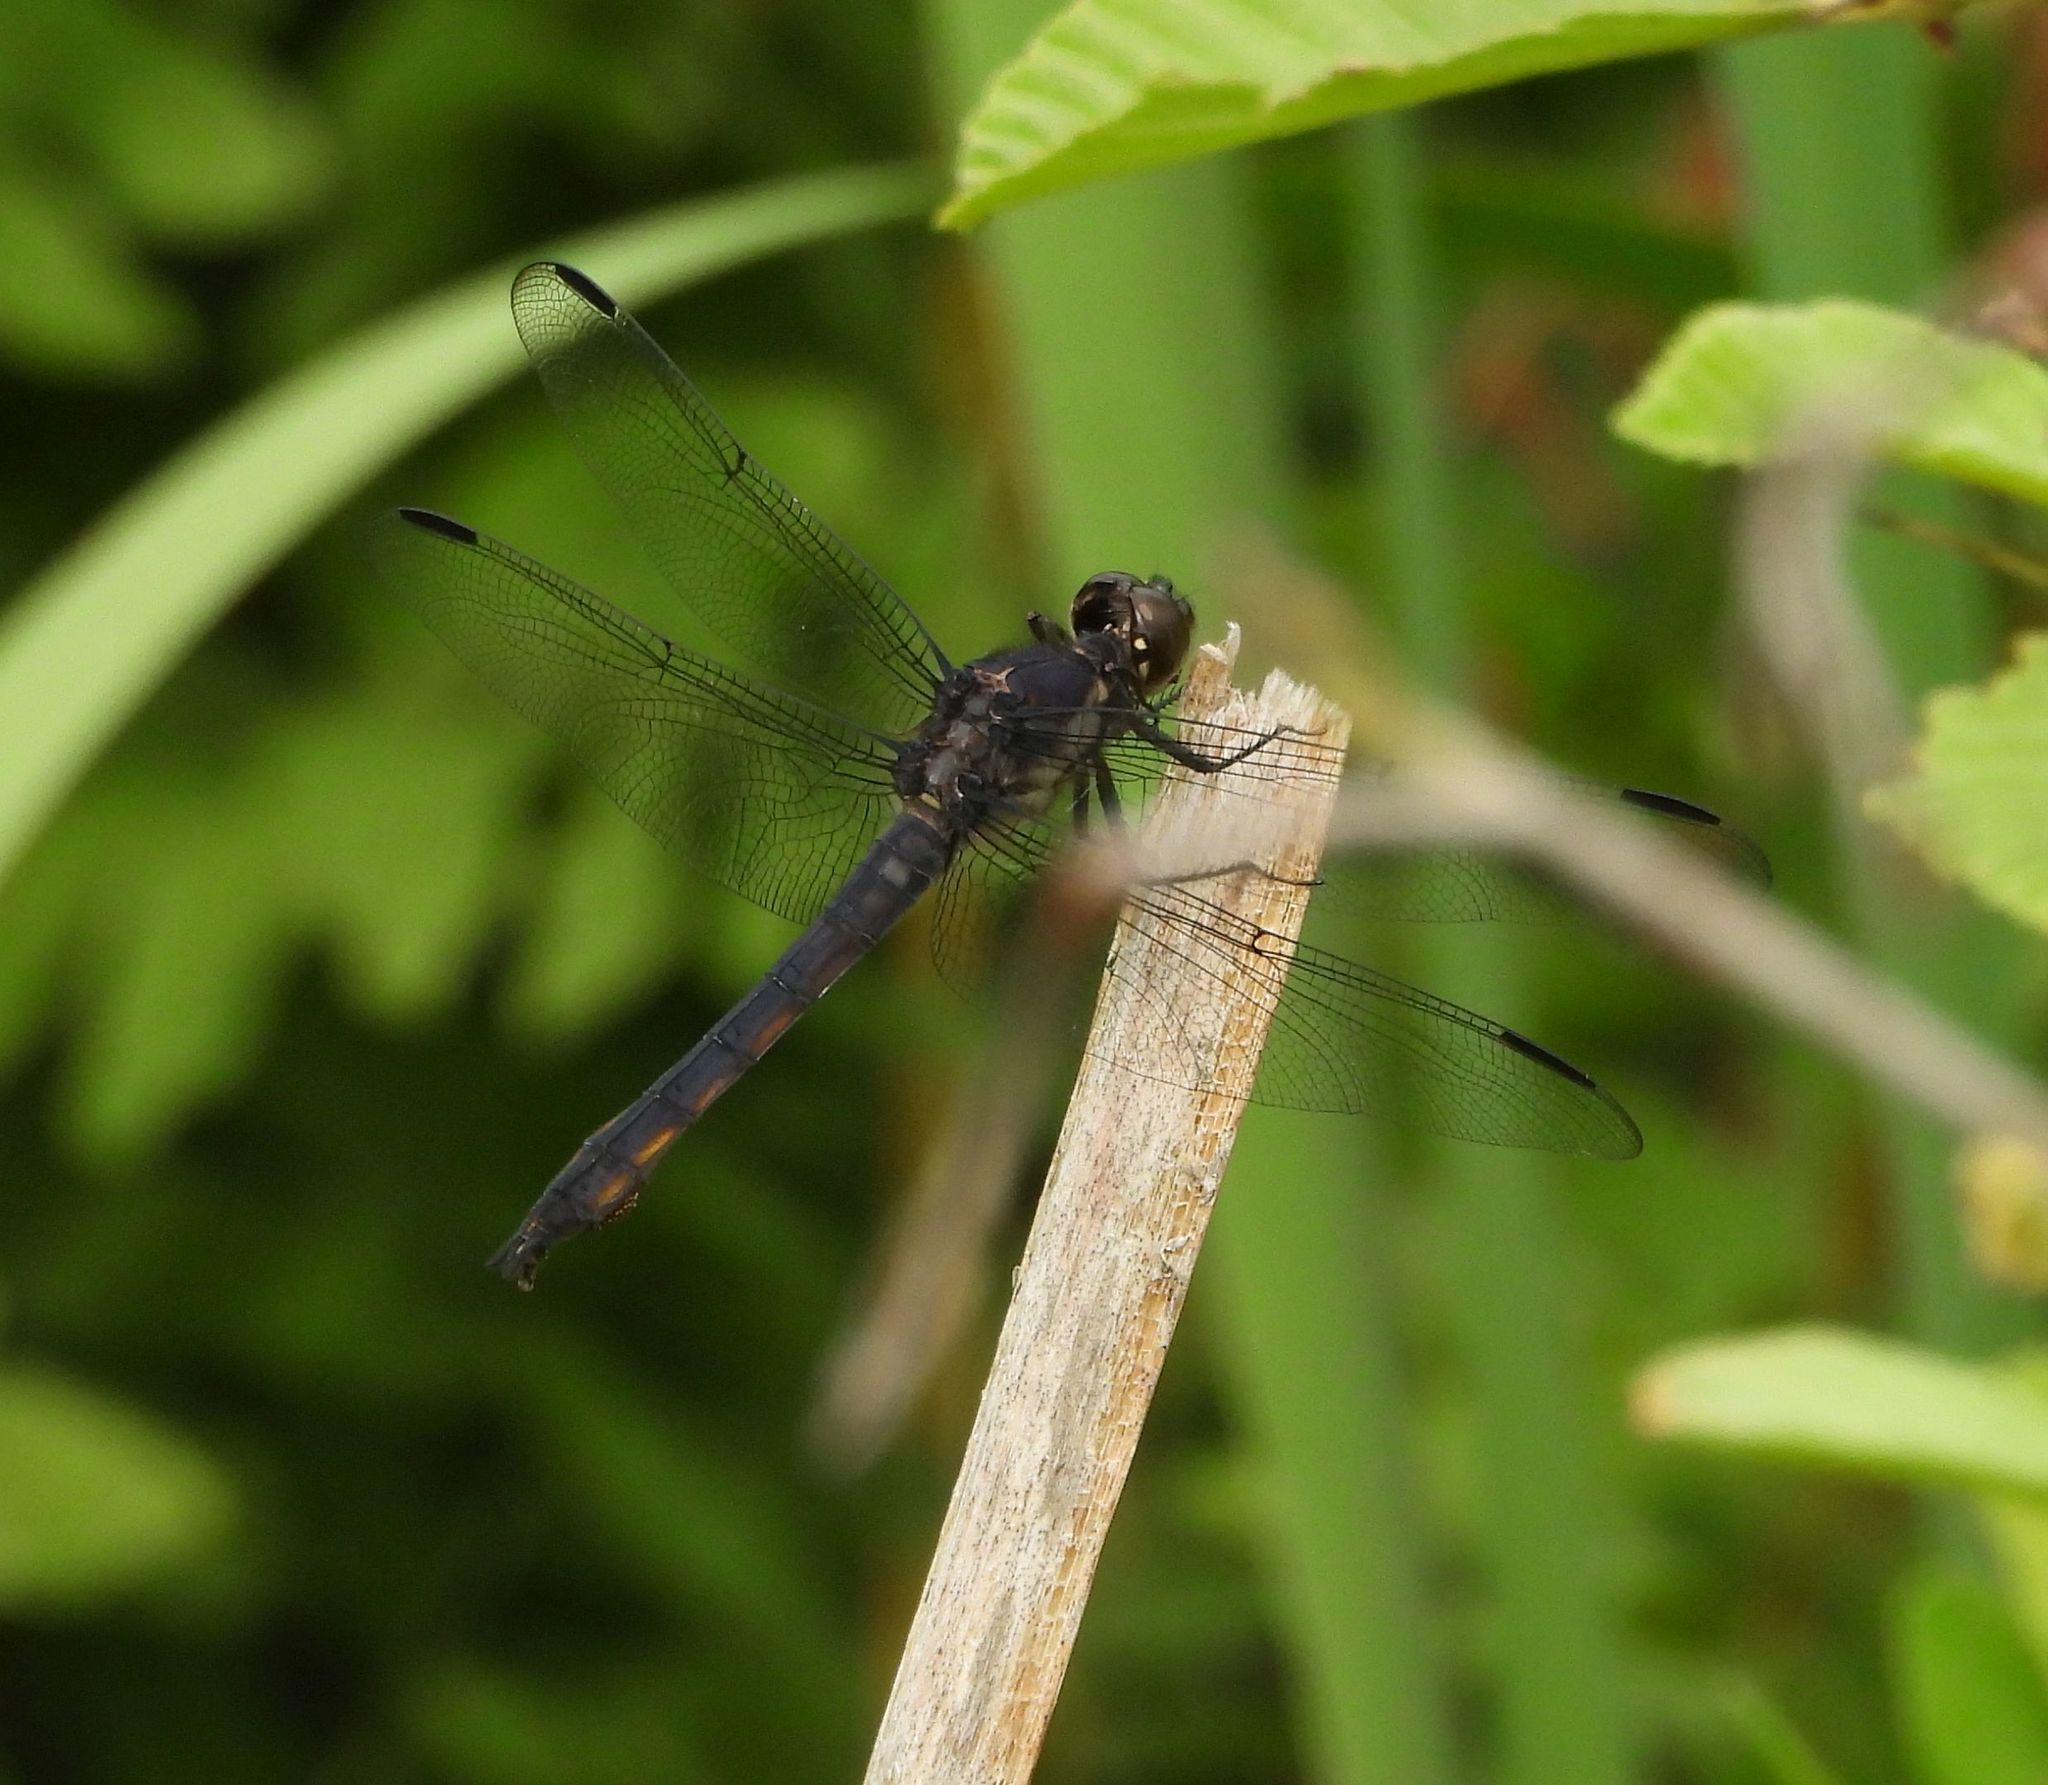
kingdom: Animalia
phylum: Arthropoda
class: Insecta
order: Odonata
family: Libellulidae
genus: Libellula
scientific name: Libellula incesta
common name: Slaty skimmer
